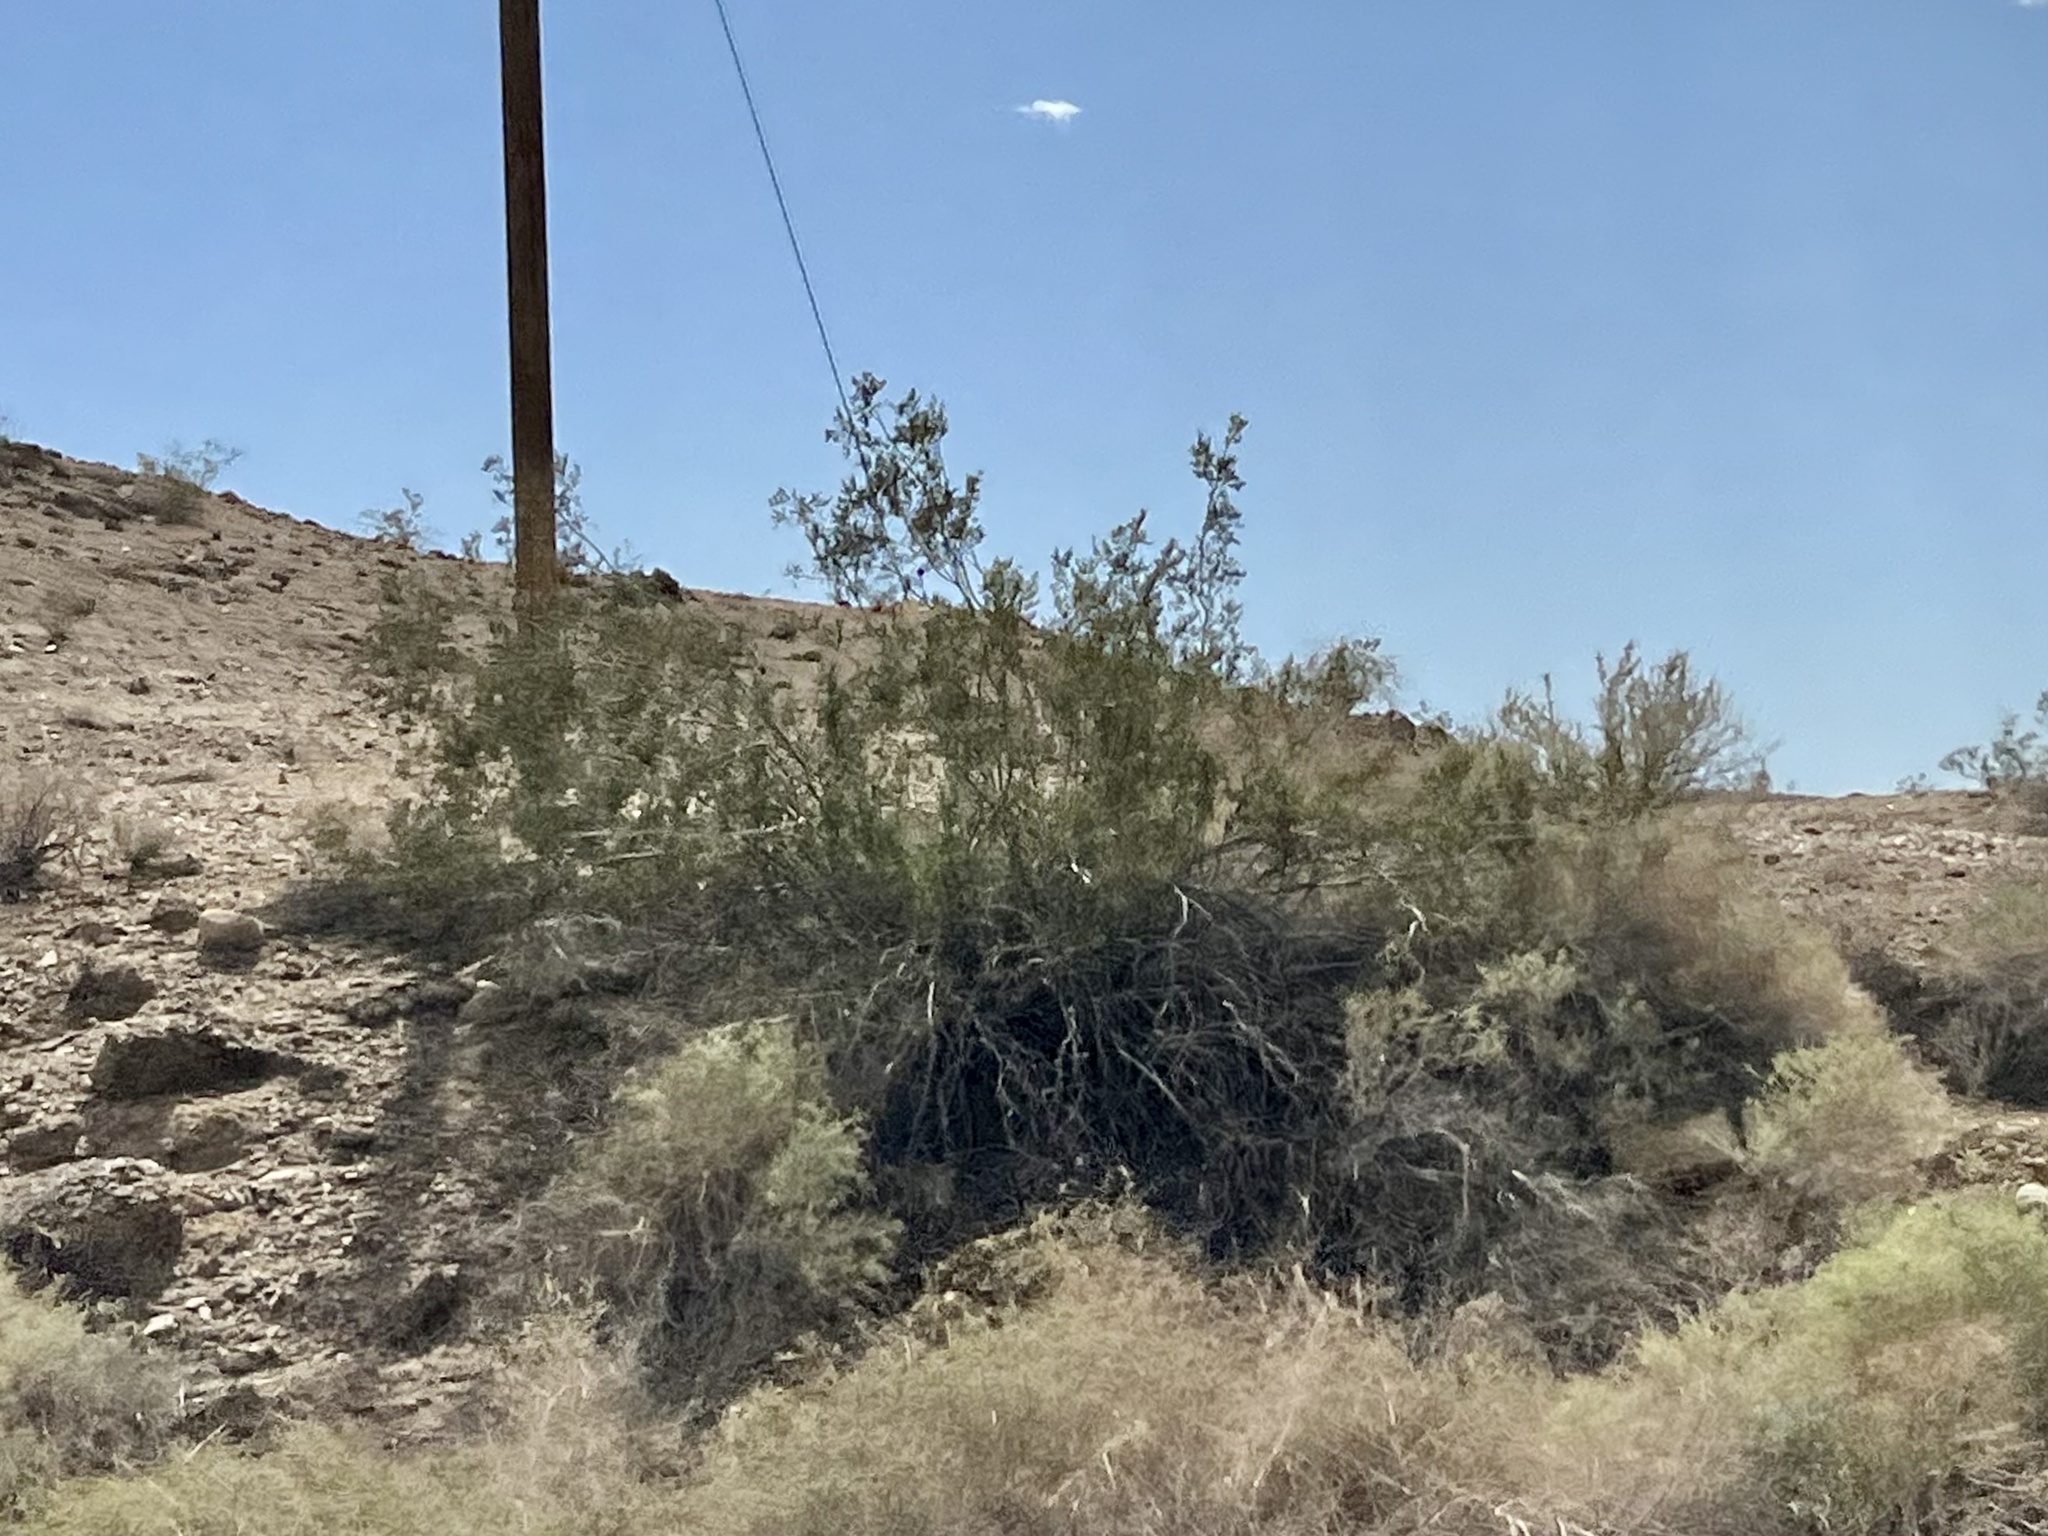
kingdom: Plantae
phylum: Tracheophyta
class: Magnoliopsida
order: Zygophyllales
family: Zygophyllaceae
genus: Larrea
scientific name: Larrea tridentata
